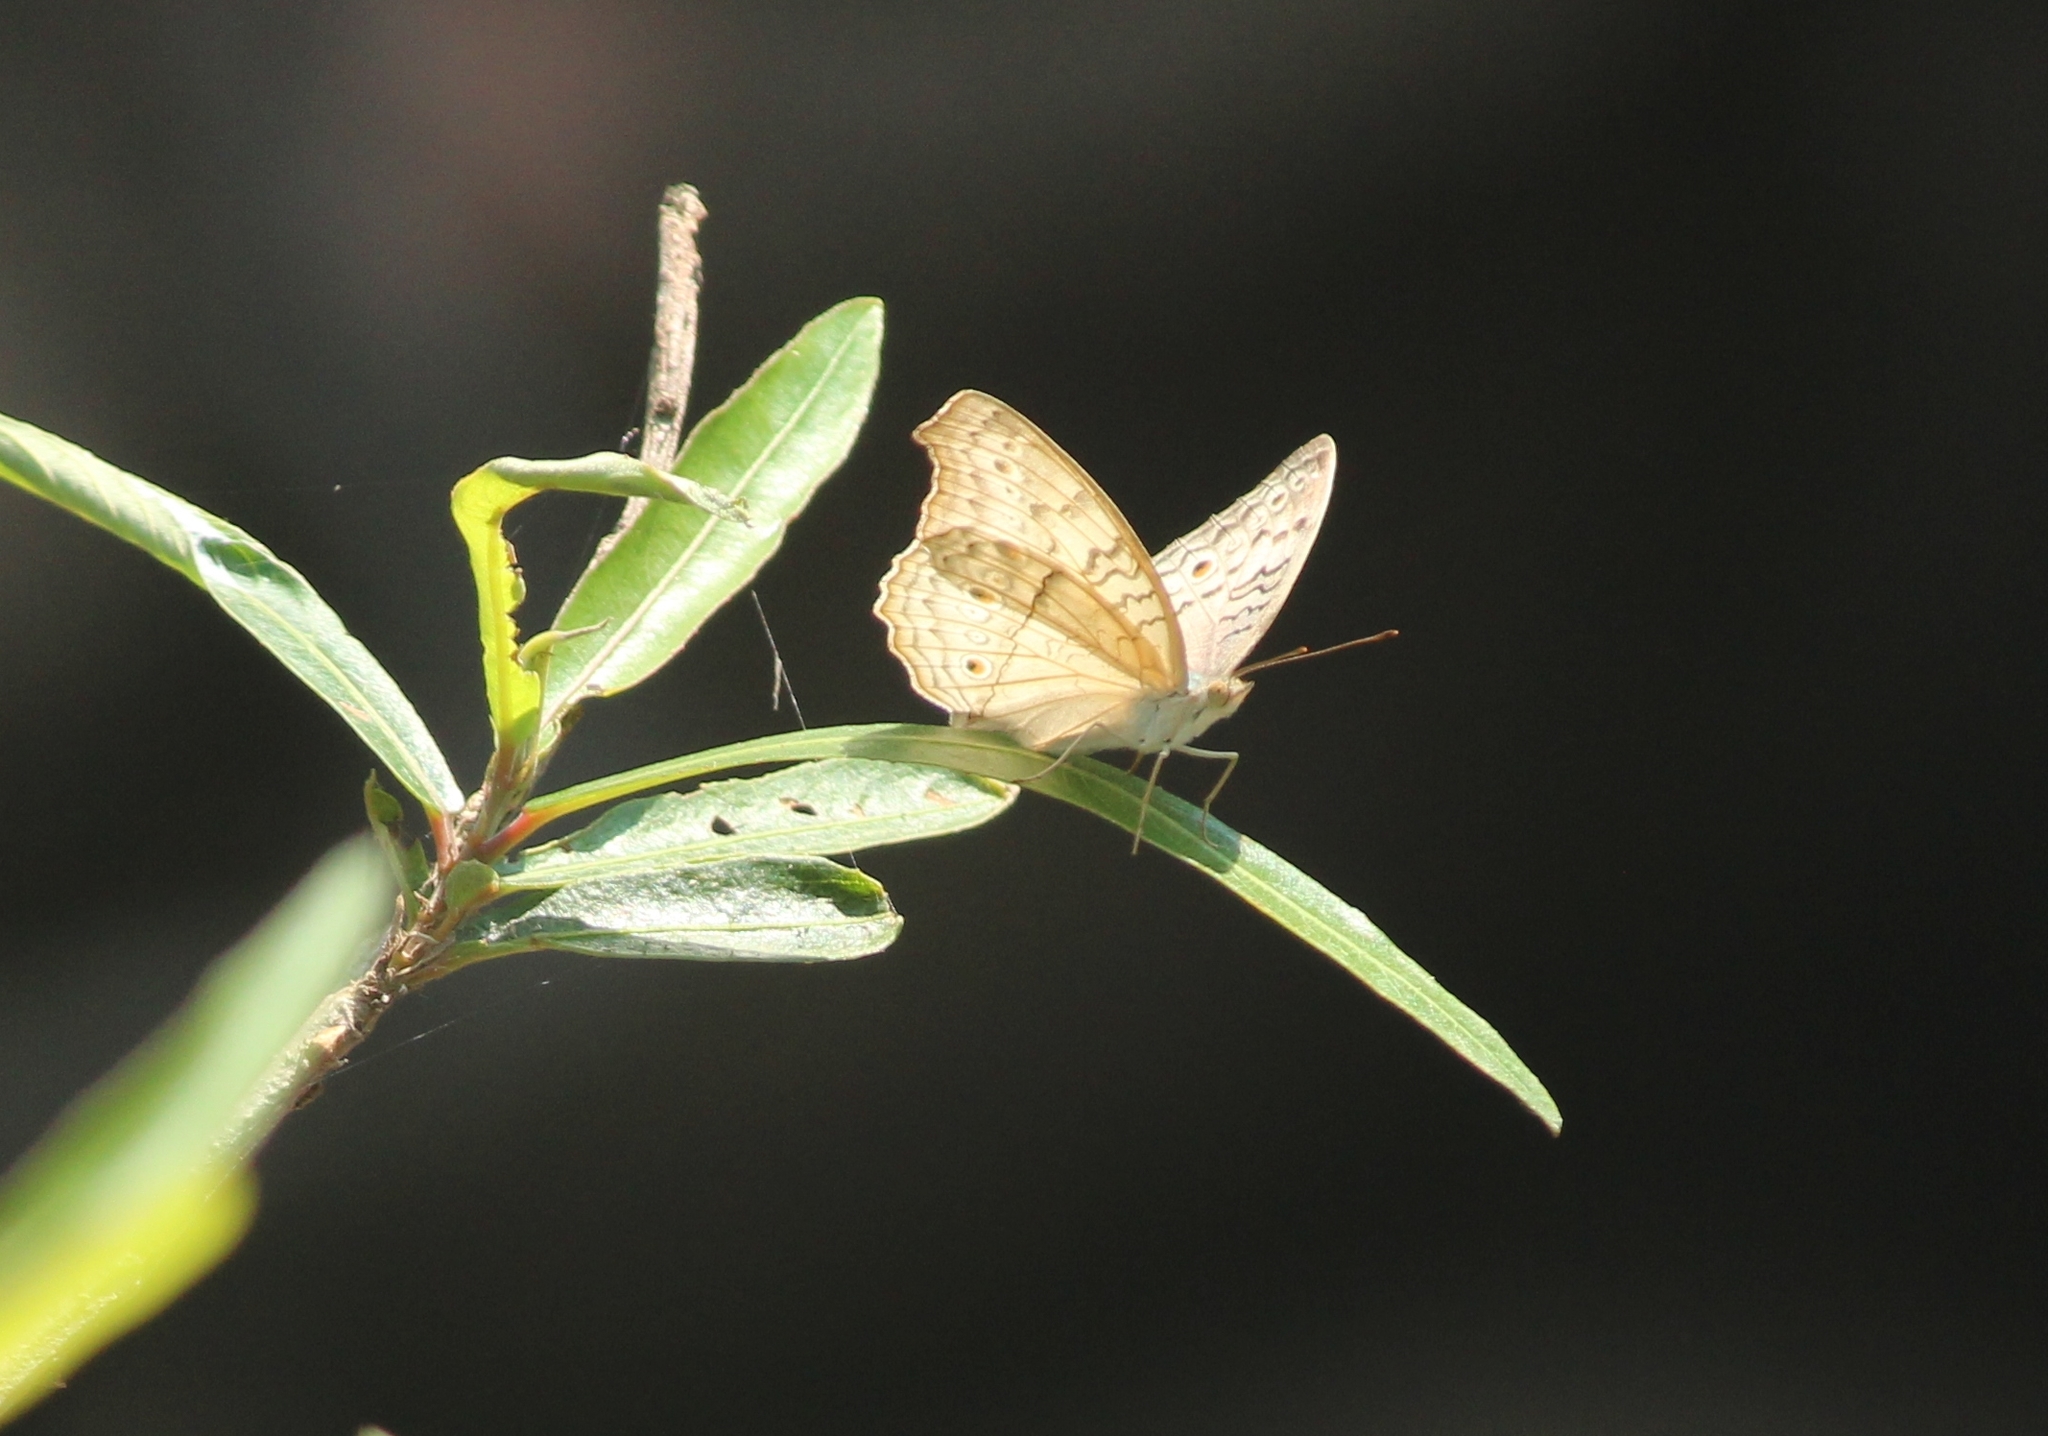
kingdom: Animalia
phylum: Arthropoda
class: Insecta
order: Lepidoptera
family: Nymphalidae
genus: Junonia
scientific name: Junonia atlites
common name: Grey pansy
